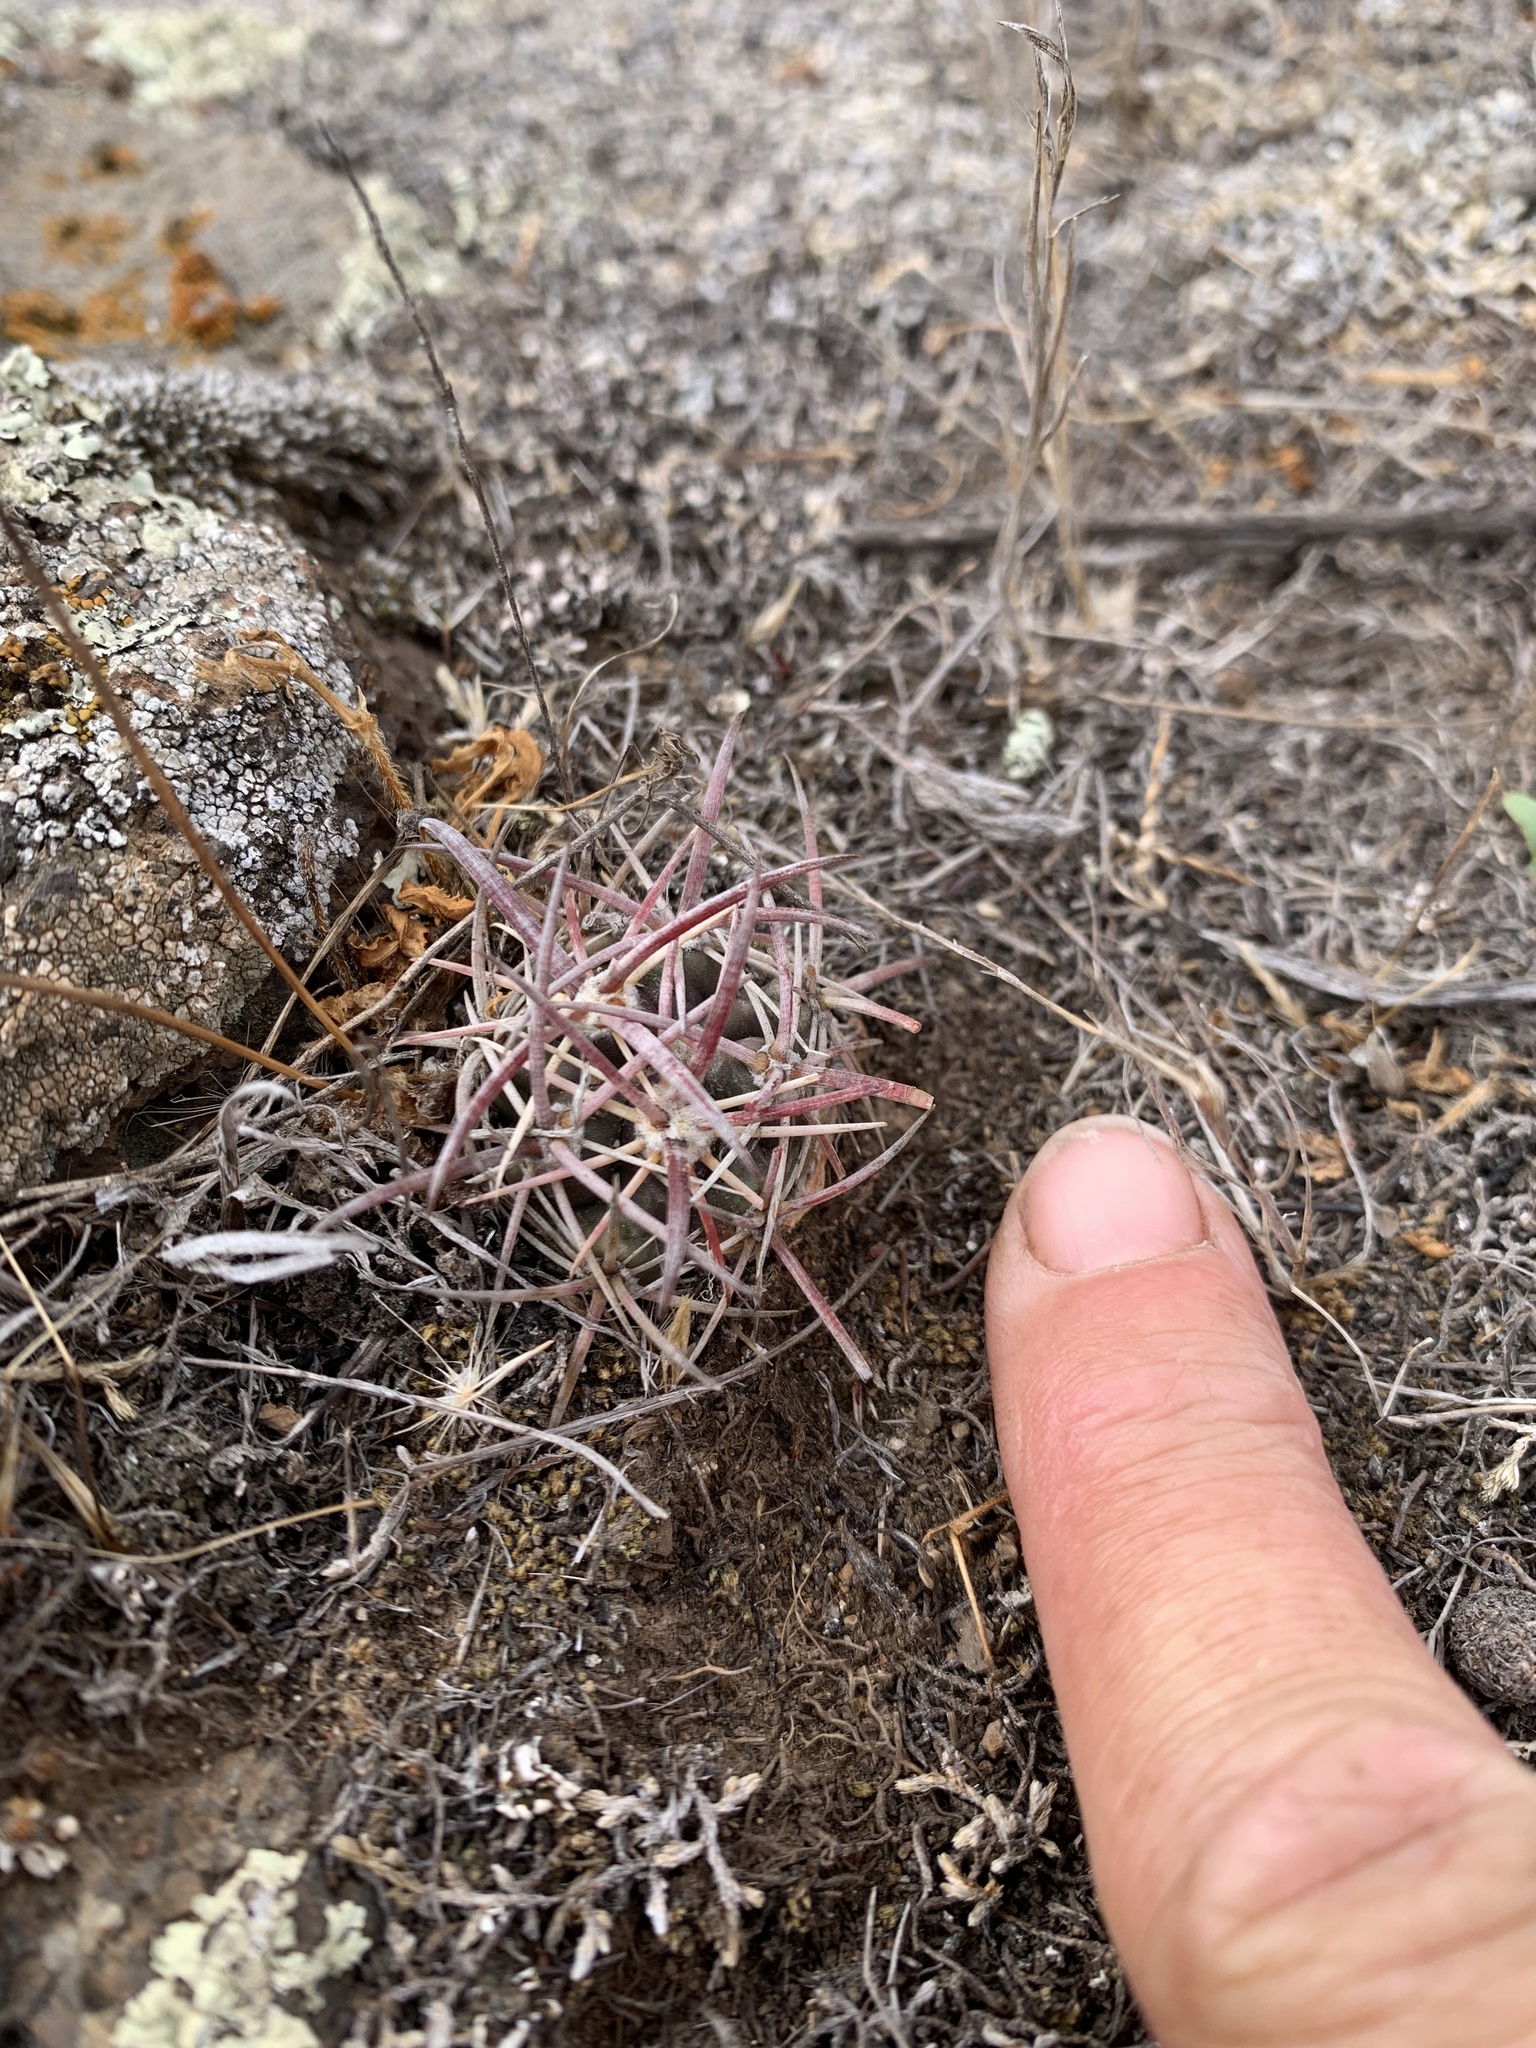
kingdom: Plantae
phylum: Tracheophyta
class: Magnoliopsida
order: Caryophyllales
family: Cactaceae
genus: Ferocactus
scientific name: Ferocactus viridescens
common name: San diego barrel cactus
